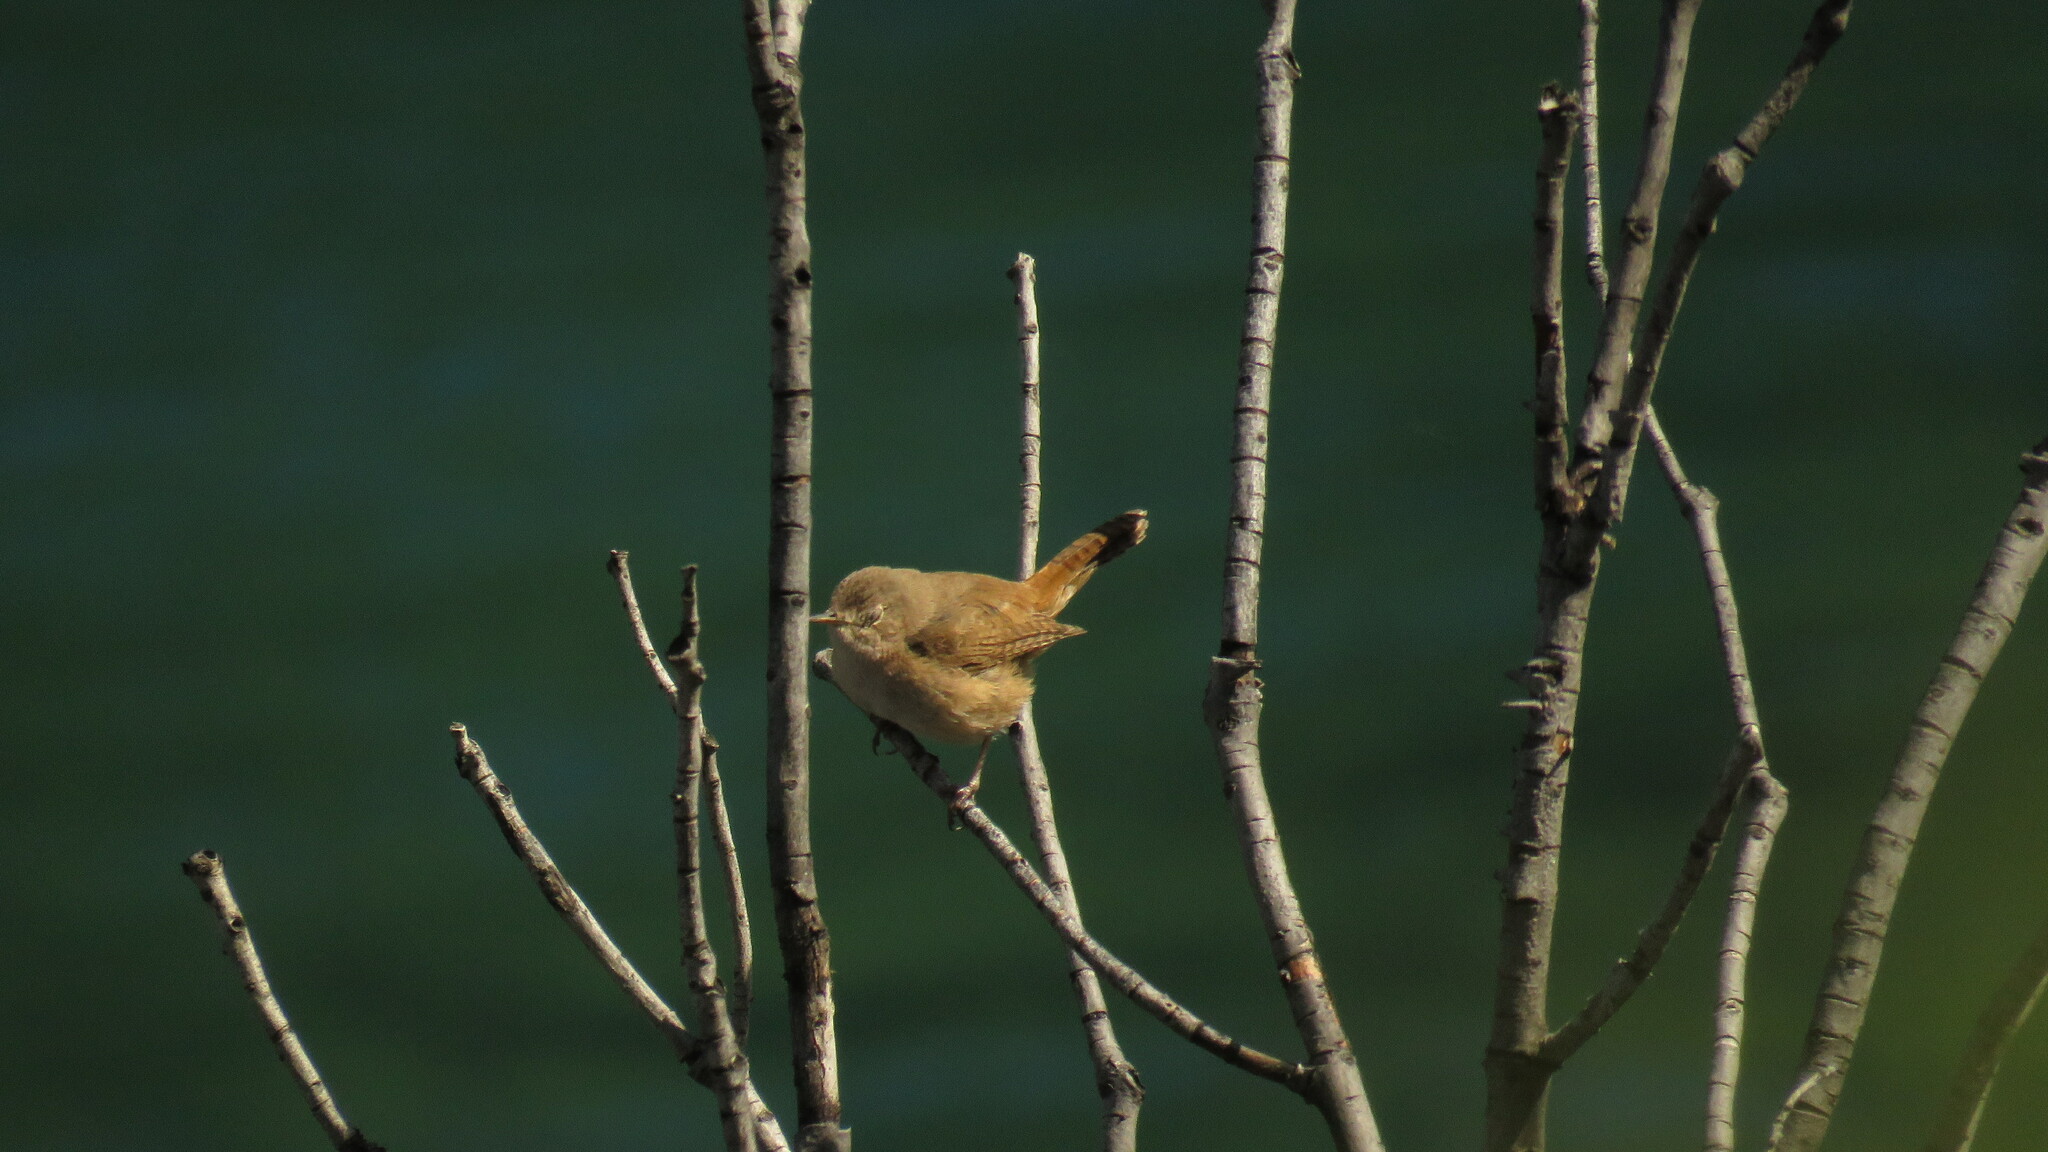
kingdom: Animalia
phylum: Chordata
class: Aves
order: Passeriformes
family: Troglodytidae
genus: Troglodytes
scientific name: Troglodytes aedon
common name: House wren
